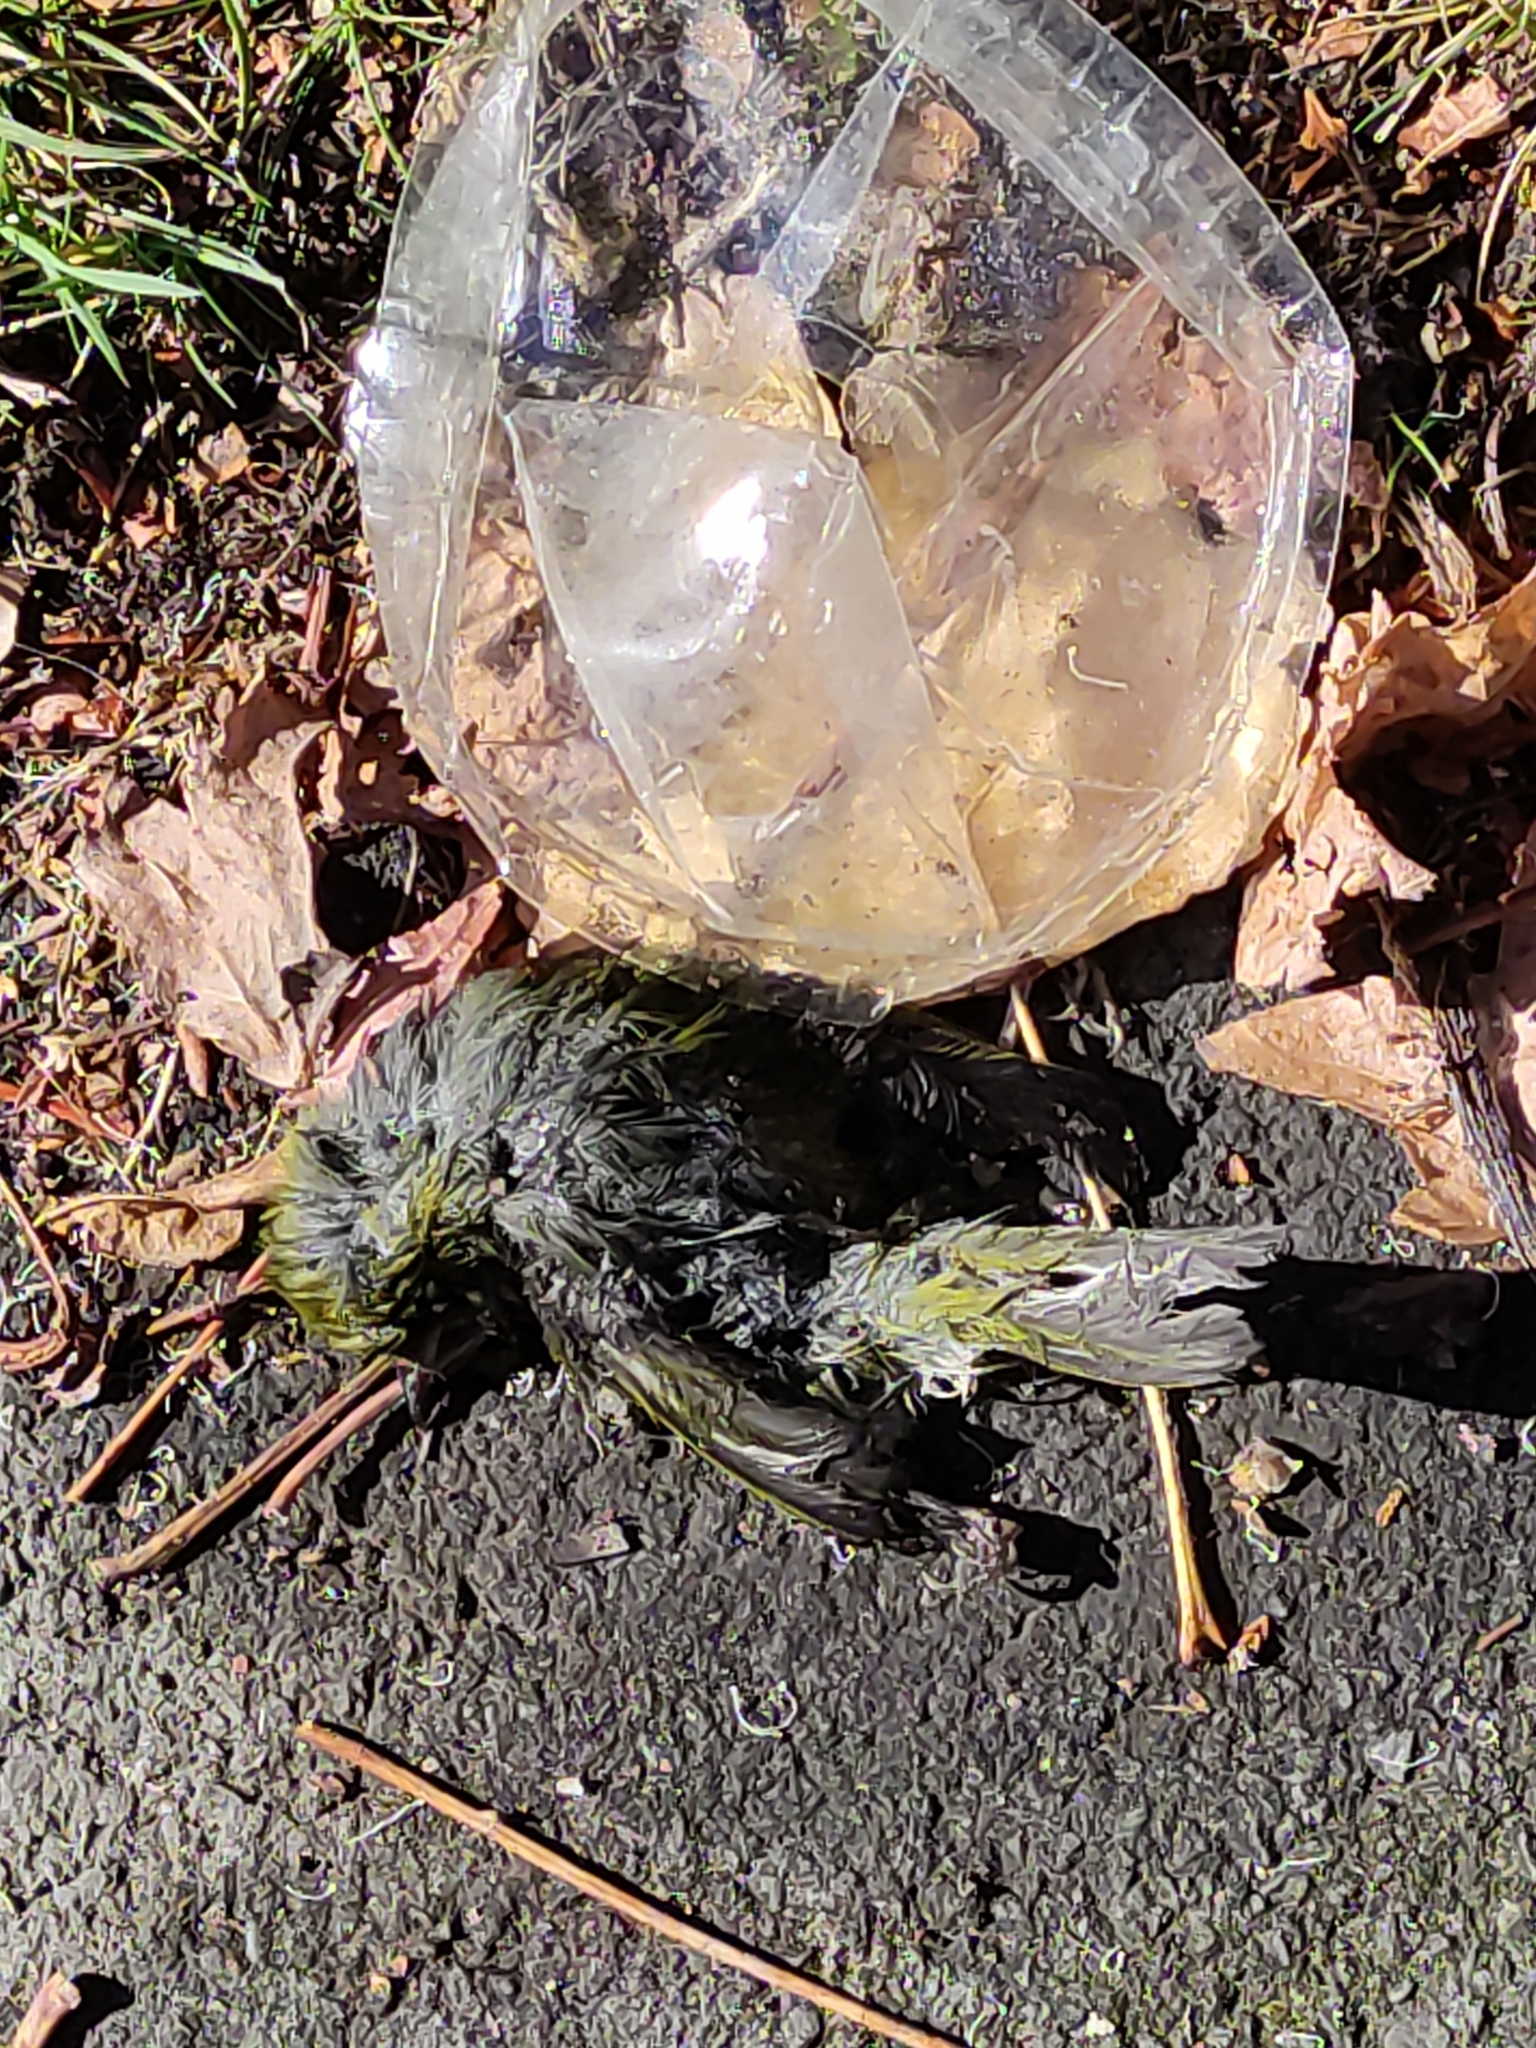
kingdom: Animalia
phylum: Chordata
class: Aves
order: Passeriformes
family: Zosteropidae
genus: Zosterops
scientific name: Zosterops lateralis
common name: Silvereye
